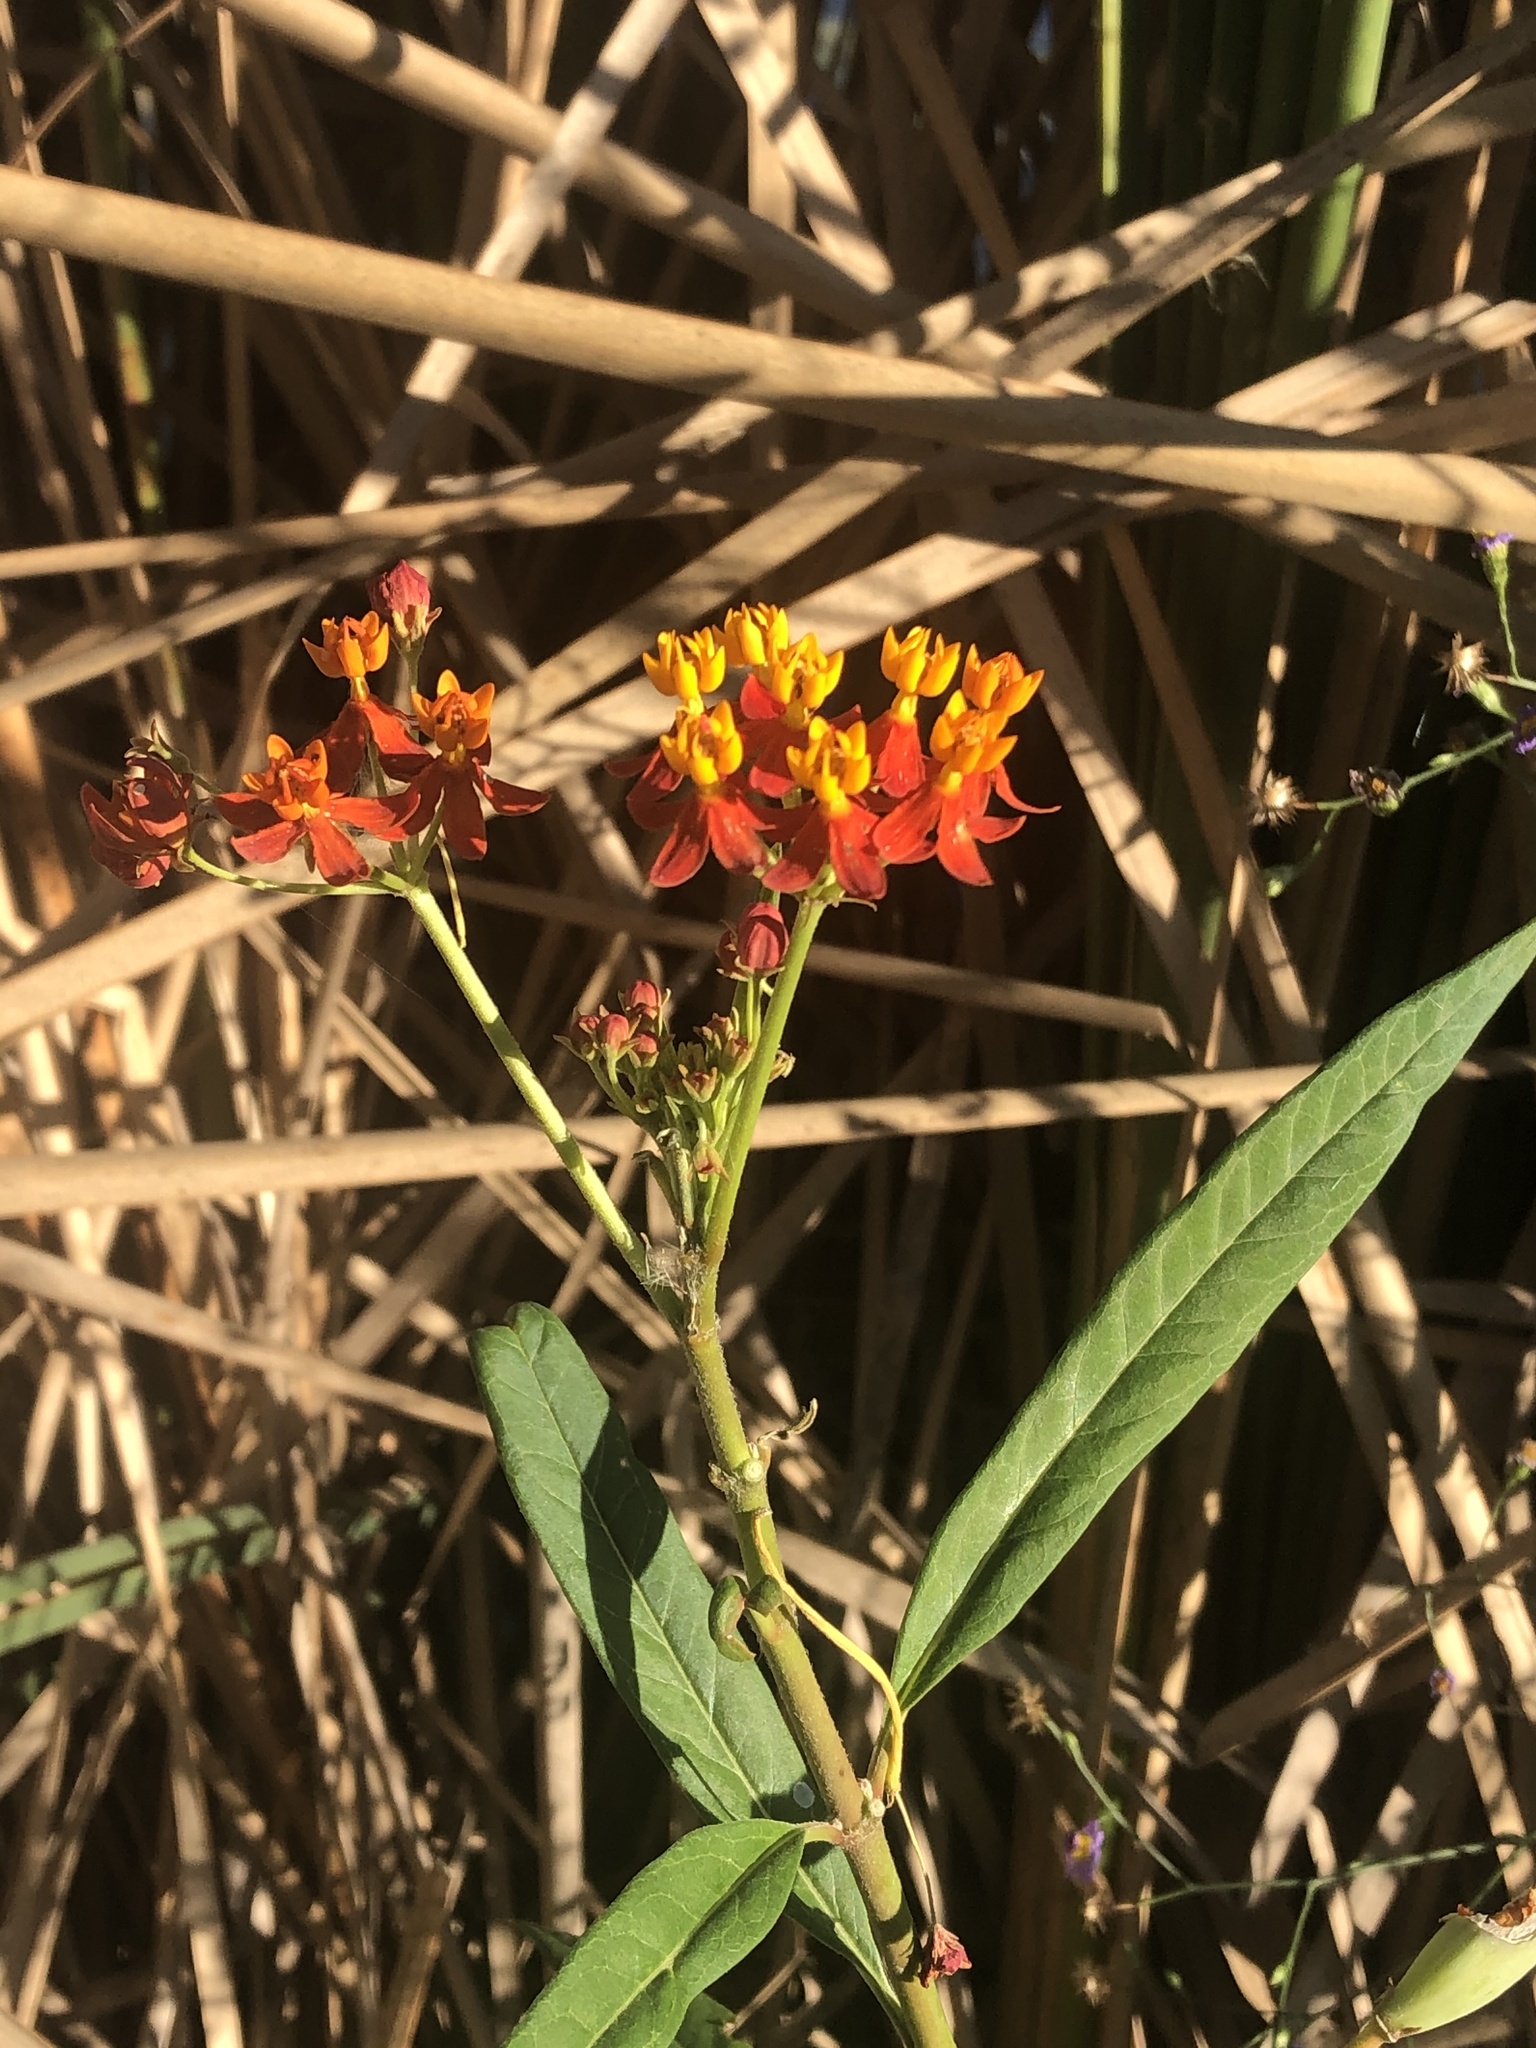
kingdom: Plantae
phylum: Tracheophyta
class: Magnoliopsida
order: Gentianales
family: Apocynaceae
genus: Asclepias
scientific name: Asclepias curassavica
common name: Bloodflower
